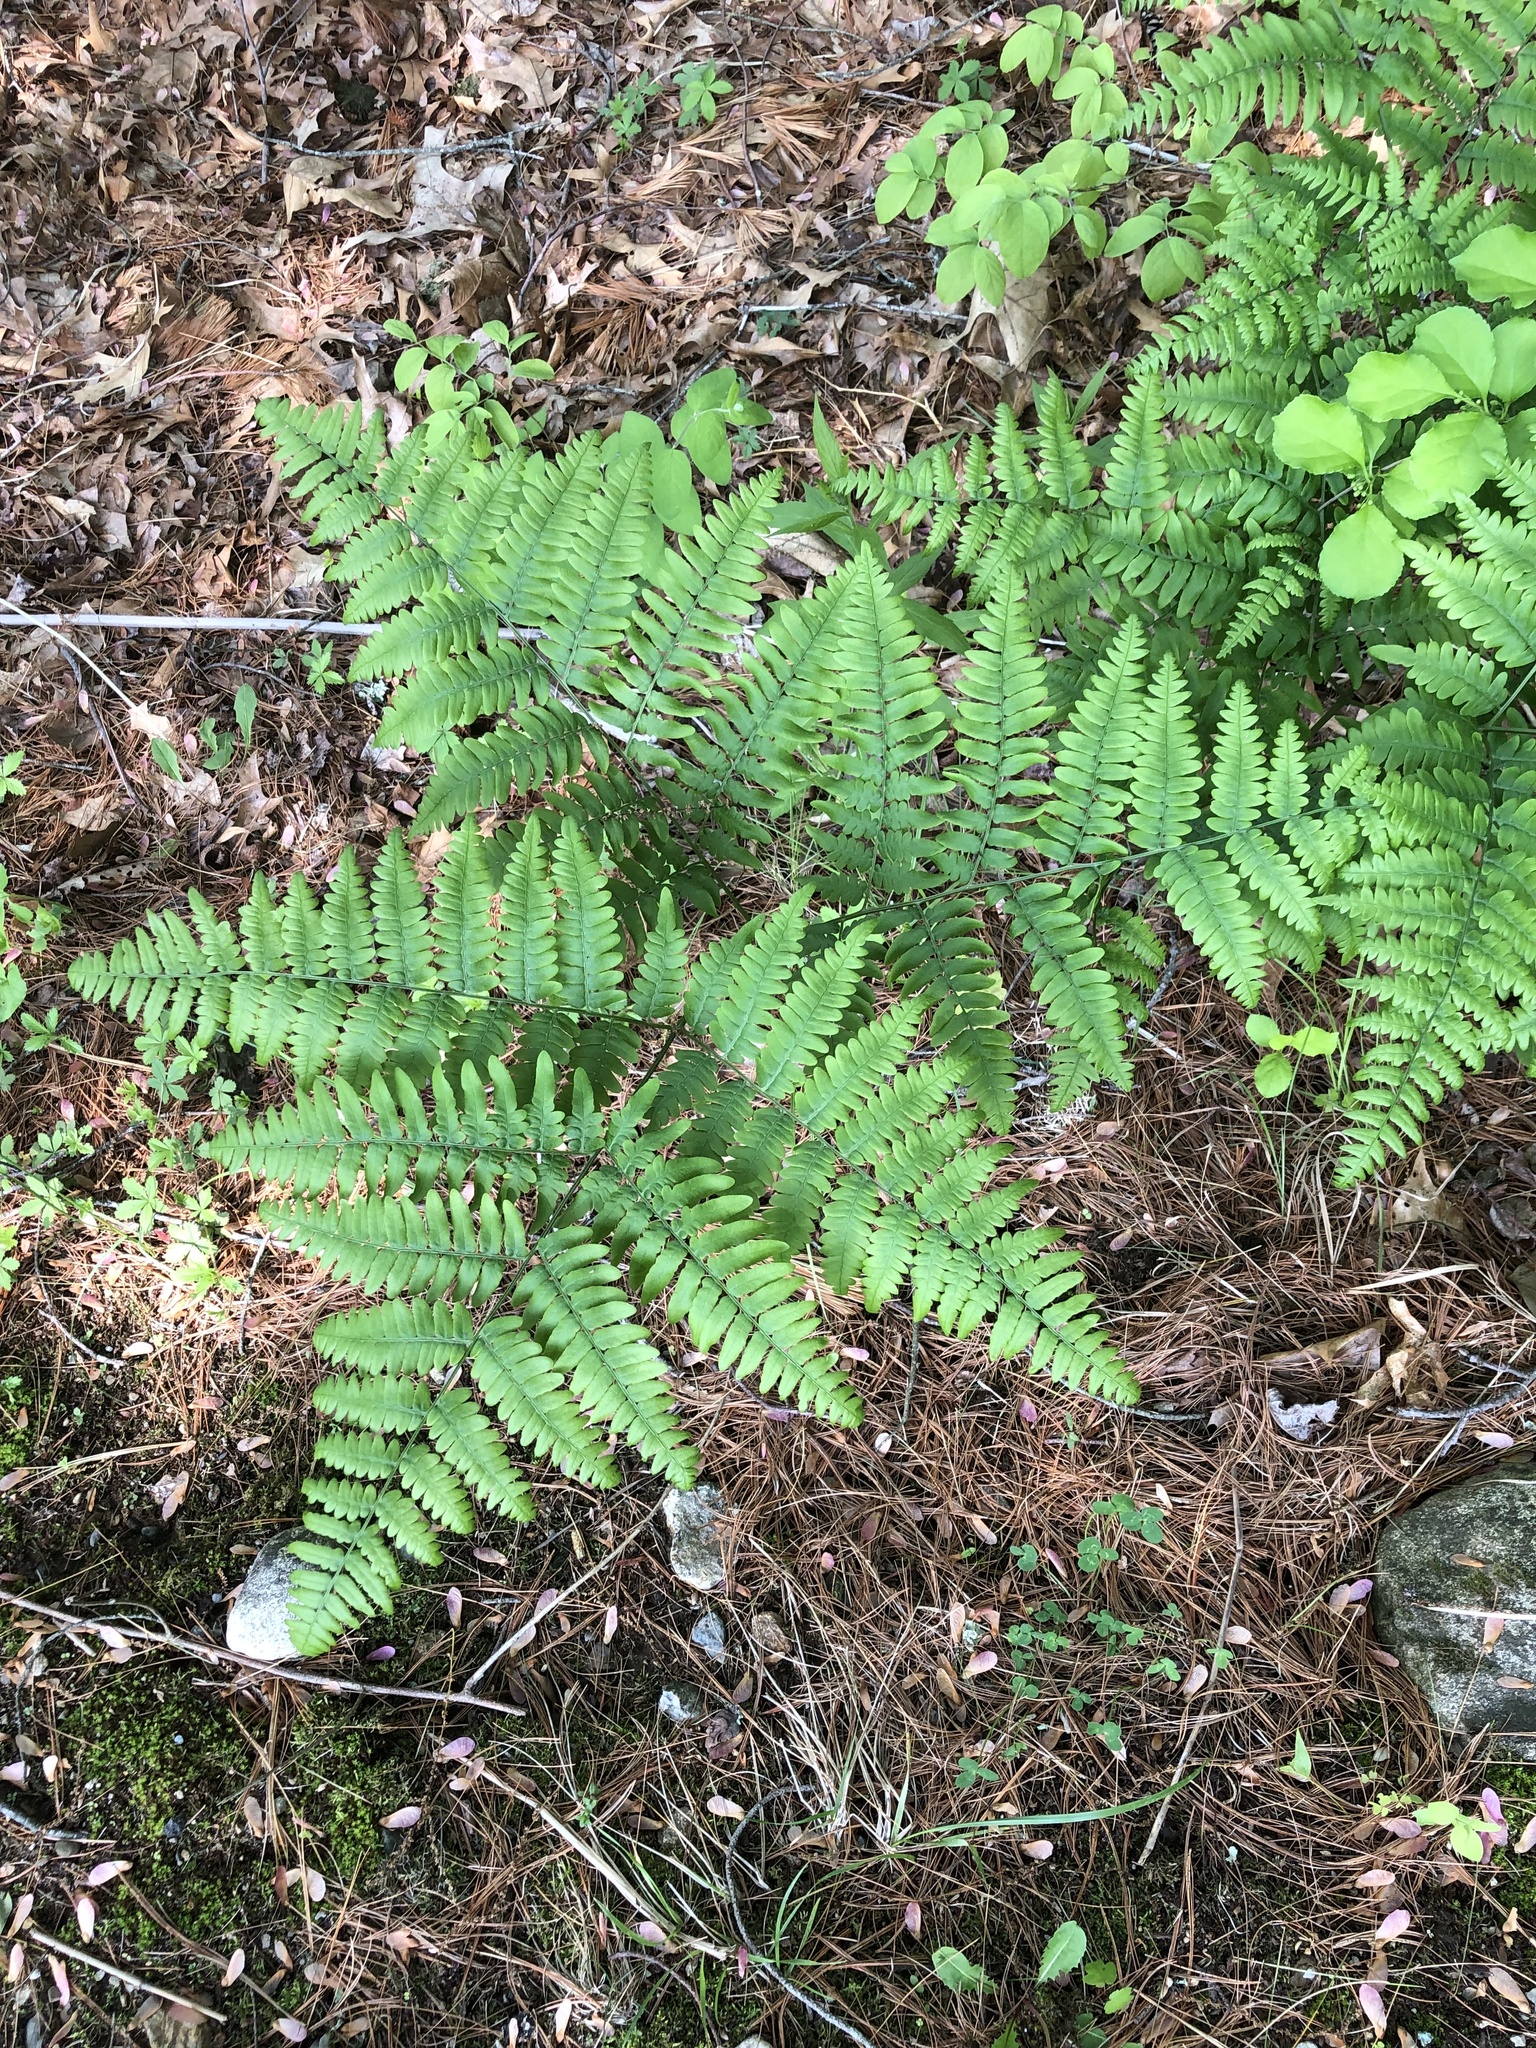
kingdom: Plantae
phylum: Tracheophyta
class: Polypodiopsida
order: Polypodiales
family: Dennstaedtiaceae
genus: Pteridium
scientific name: Pteridium aquilinum
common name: Bracken
